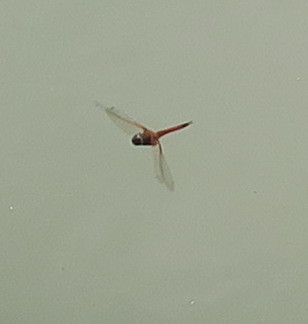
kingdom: Animalia
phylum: Arthropoda
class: Insecta
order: Odonata
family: Libellulidae
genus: Tramea
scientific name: Tramea
